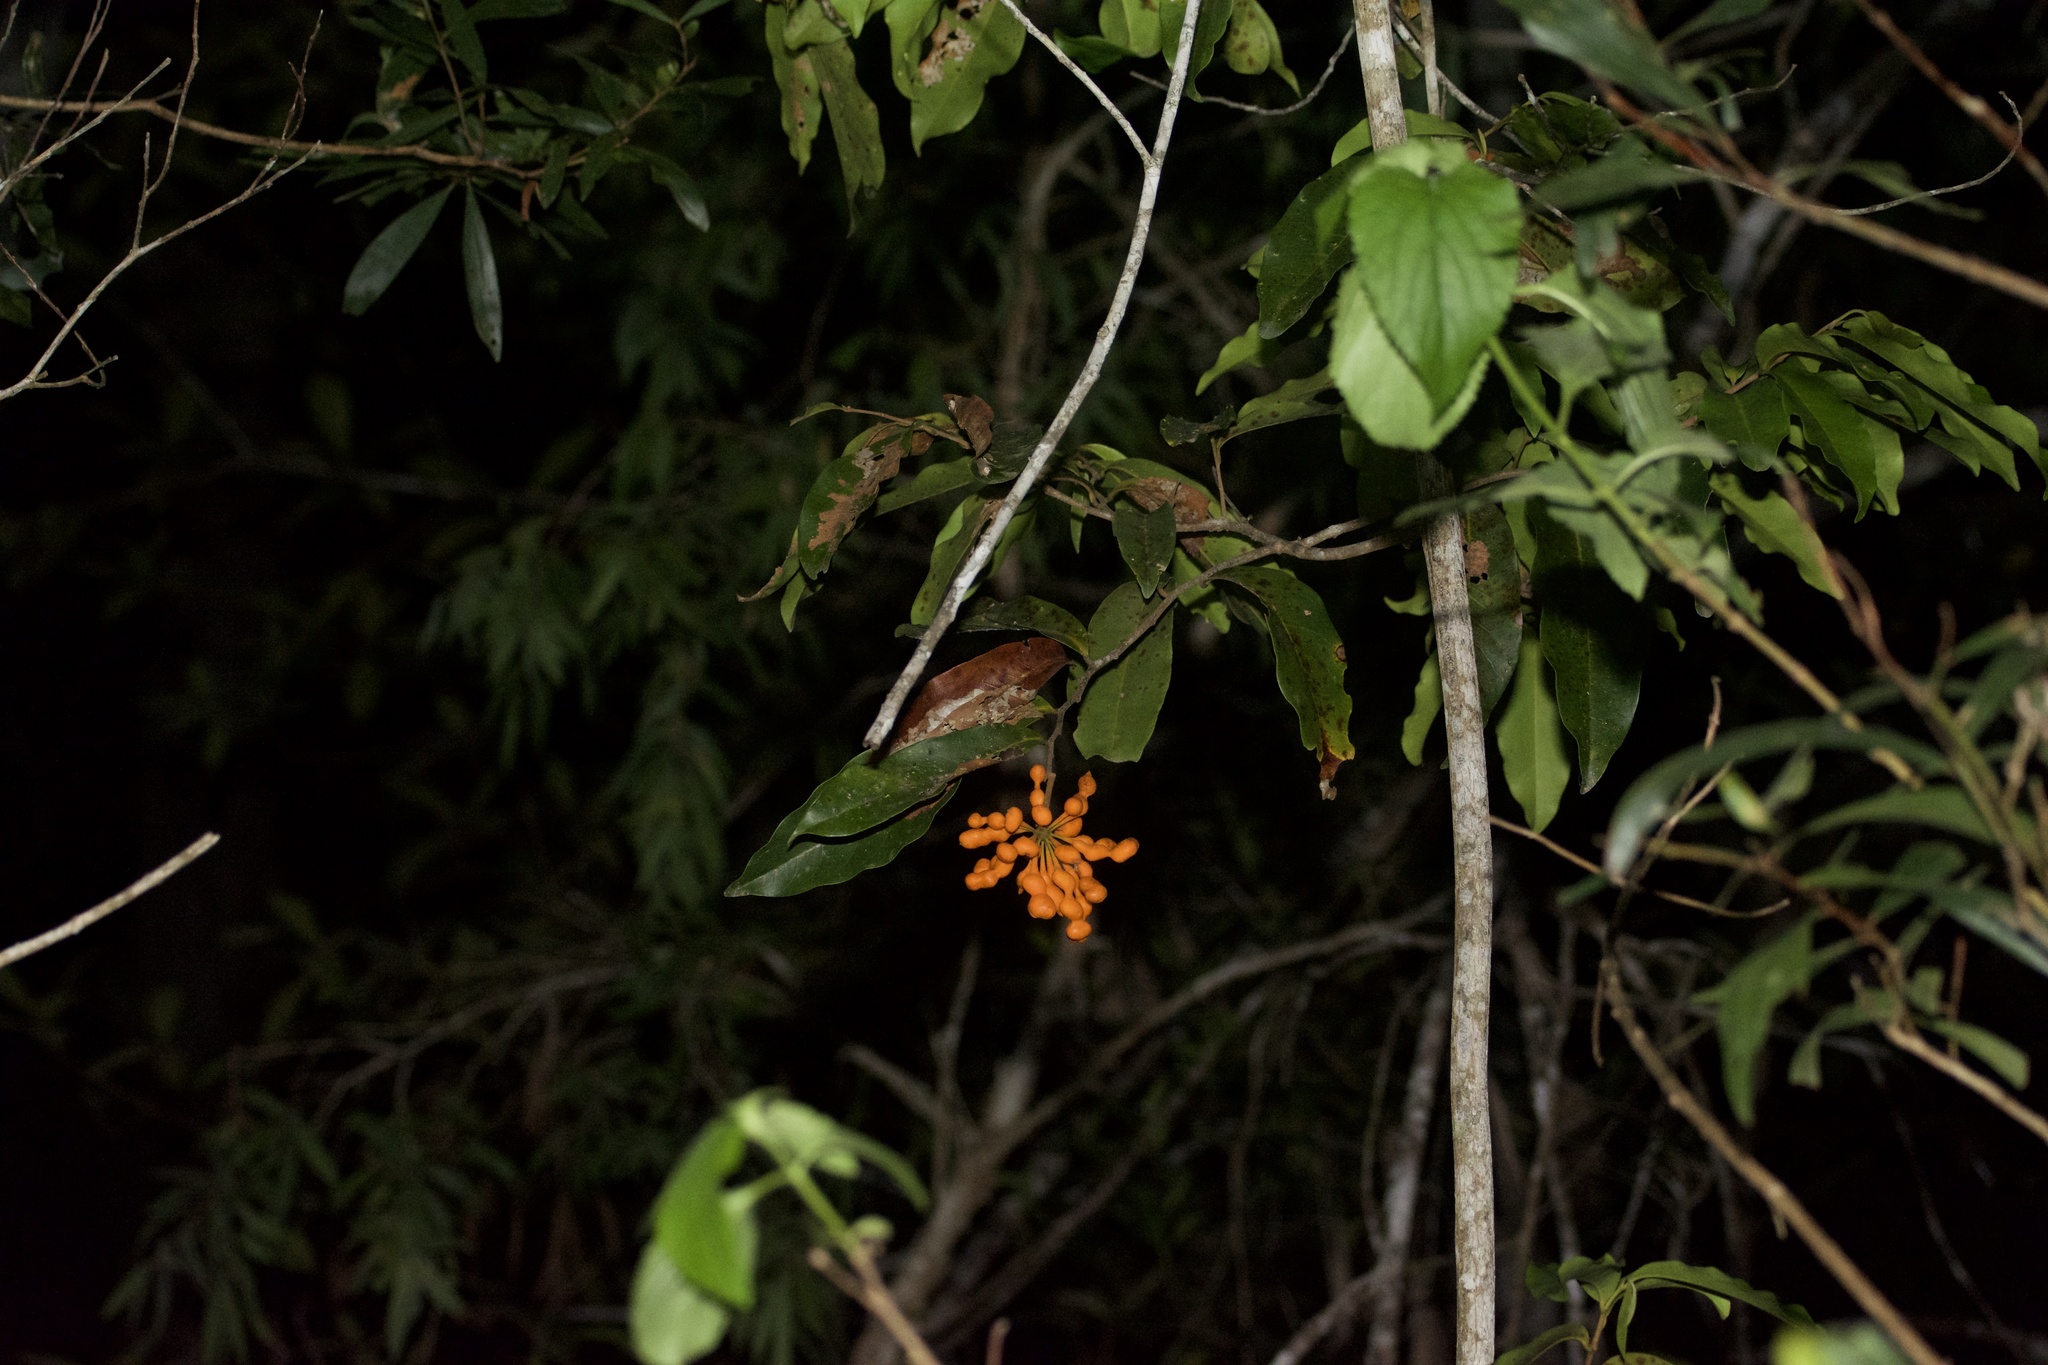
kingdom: Plantae
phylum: Tracheophyta
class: Magnoliopsida
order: Magnoliales
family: Annonaceae
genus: Uvaria
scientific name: Uvaria leichhardtii
